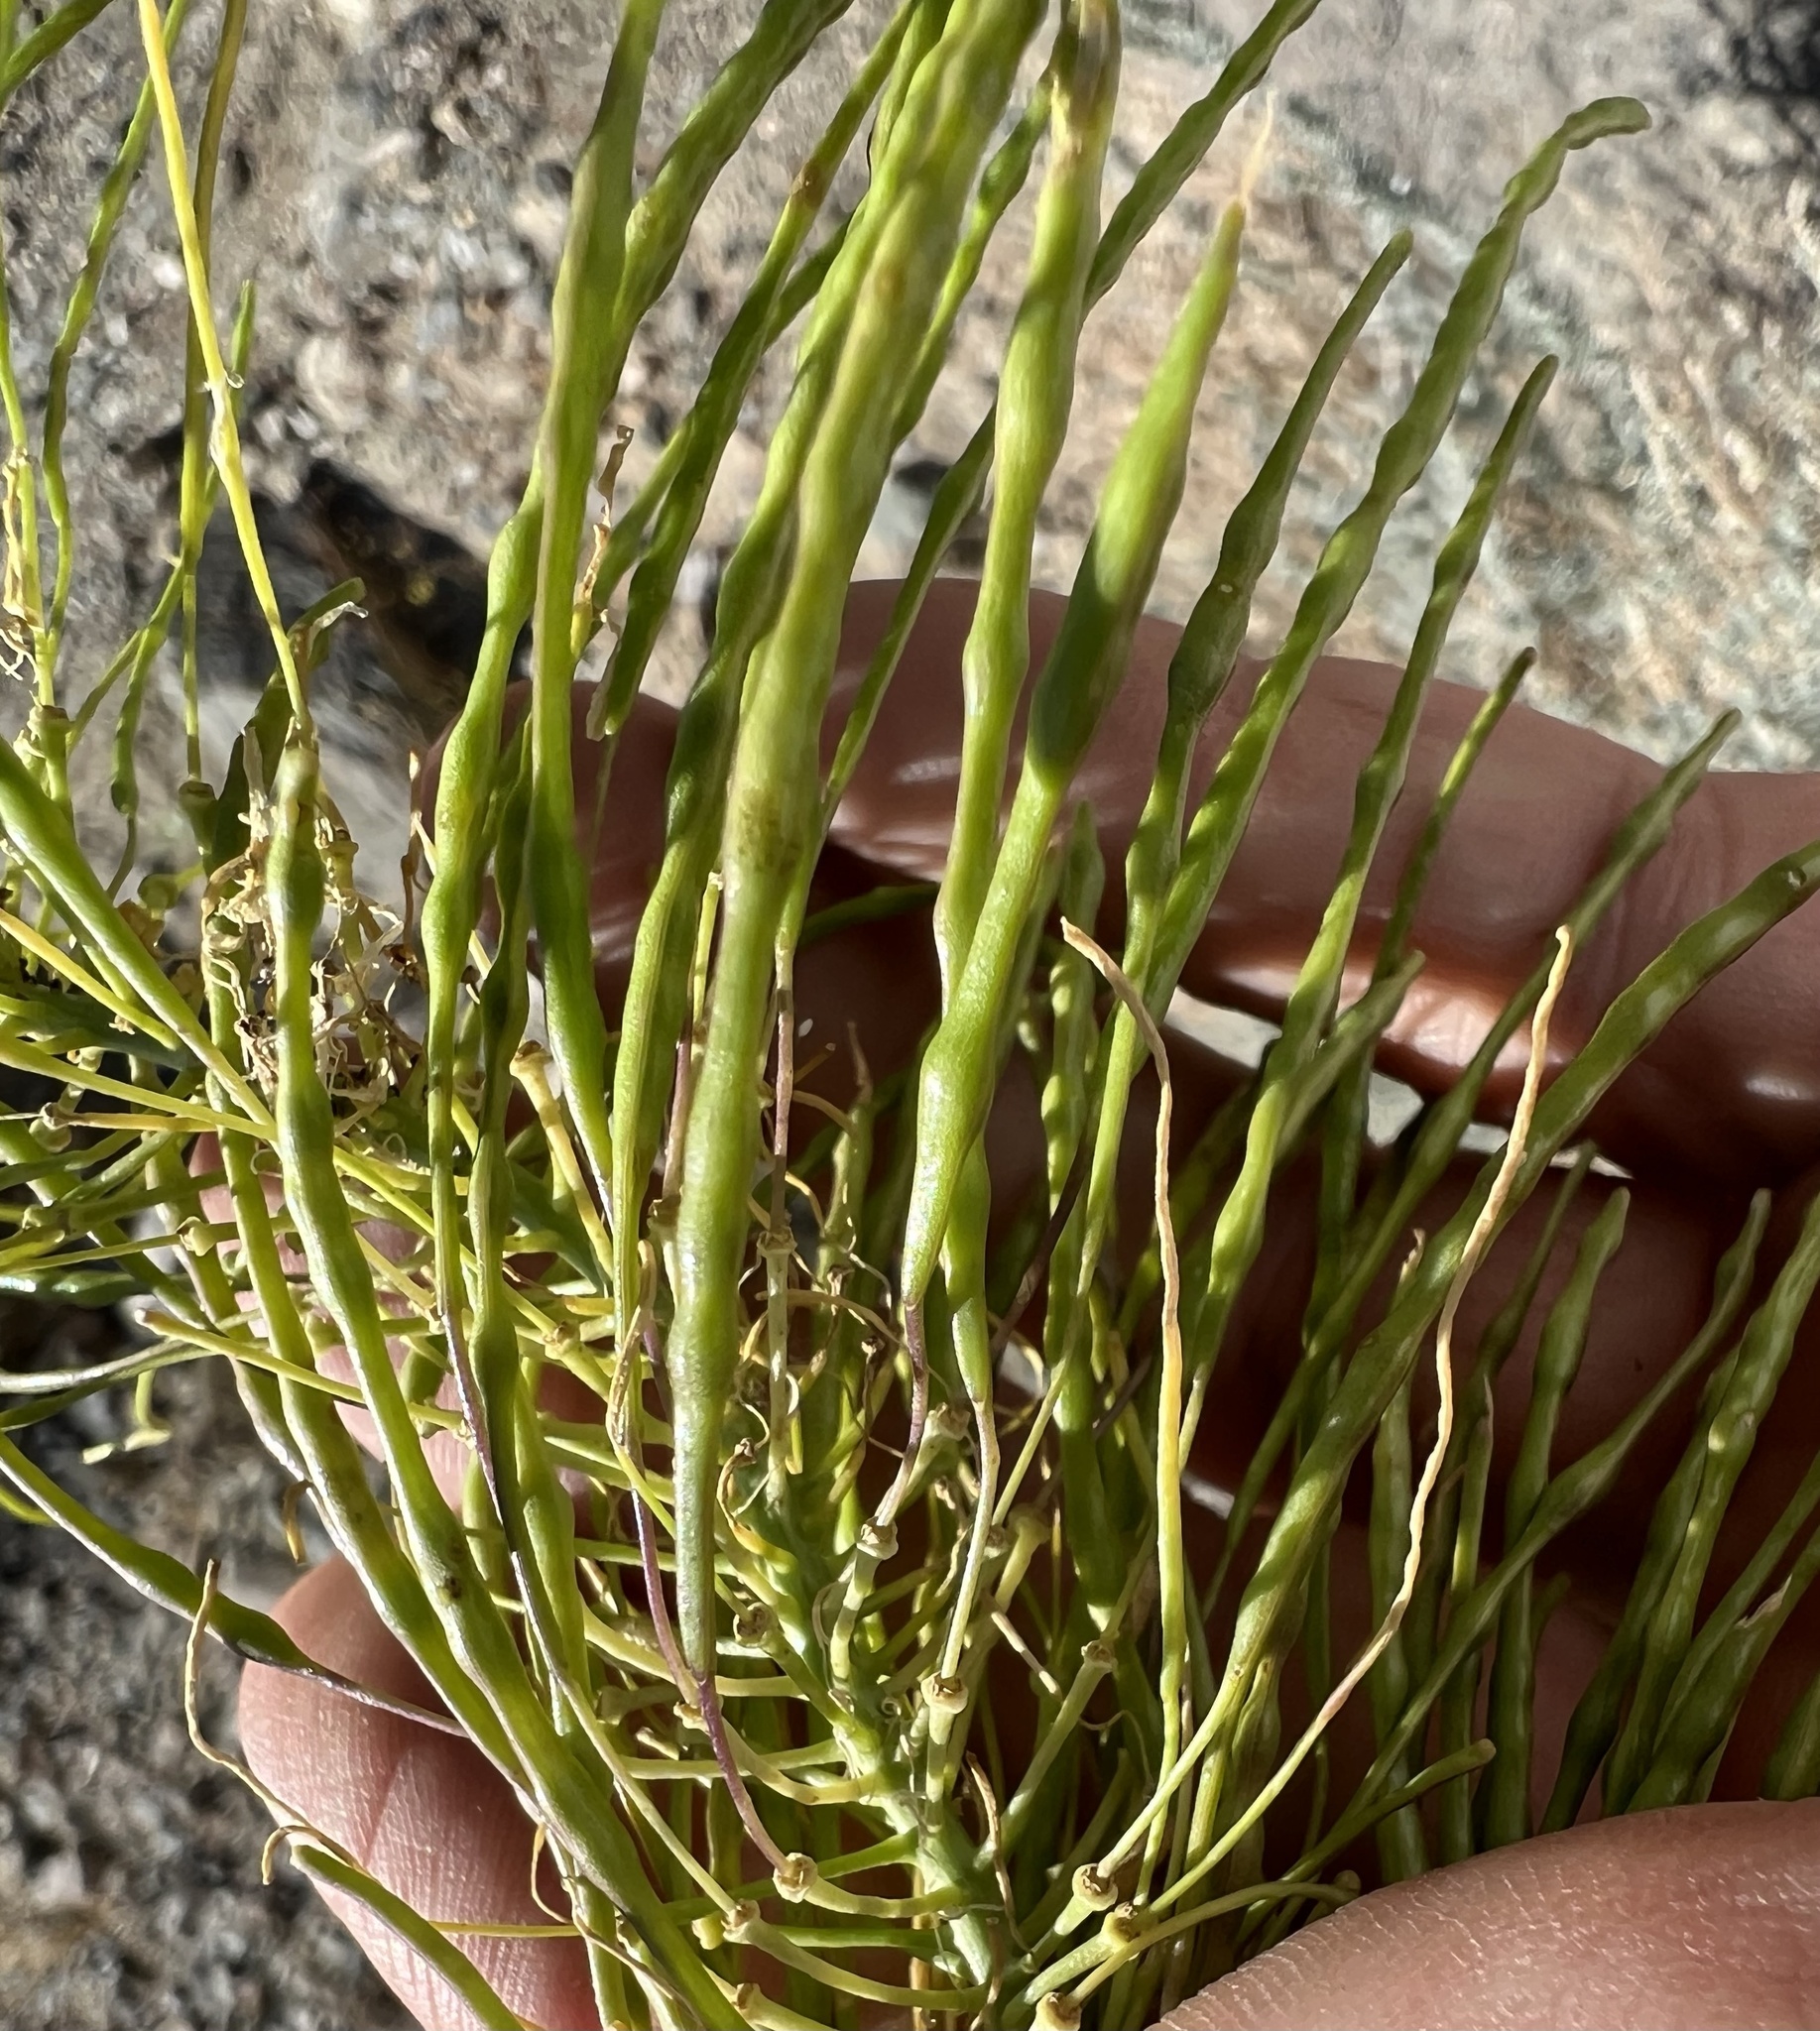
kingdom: Plantae
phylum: Tracheophyta
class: Magnoliopsida
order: Brassicales
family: Brassicaceae
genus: Stanleya
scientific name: Stanleya elata
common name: Panamint prince's plume
